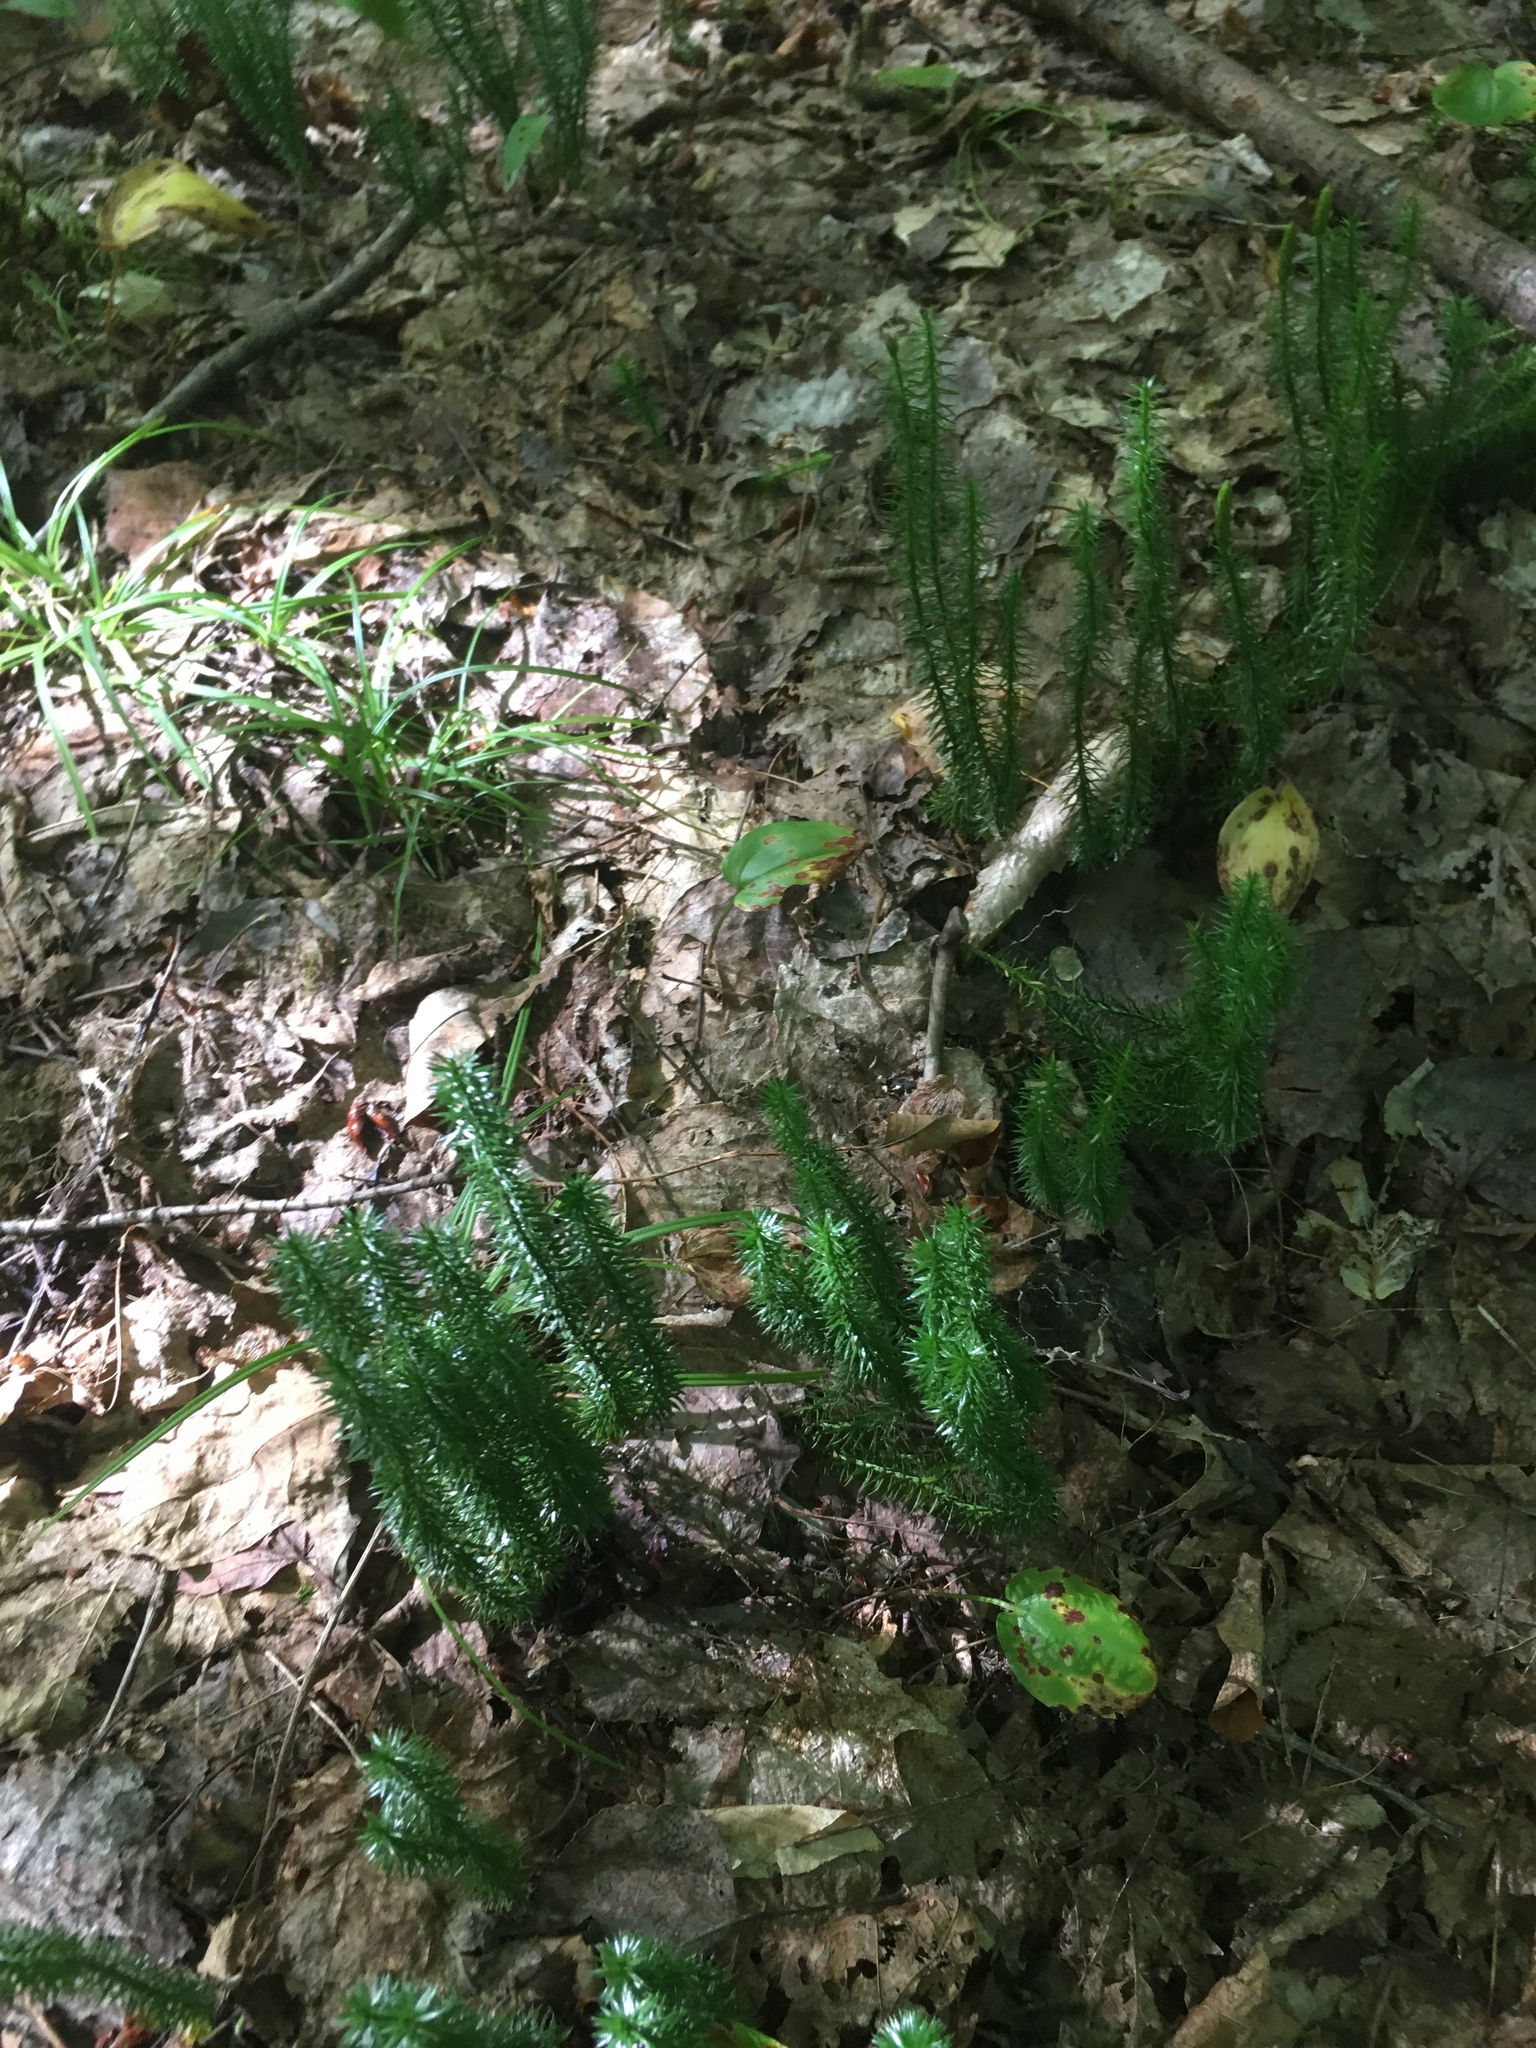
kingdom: Plantae
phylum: Tracheophyta
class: Lycopodiopsida
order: Lycopodiales
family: Lycopodiaceae
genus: Spinulum
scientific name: Spinulum annotinum
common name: Interrupted club-moss
